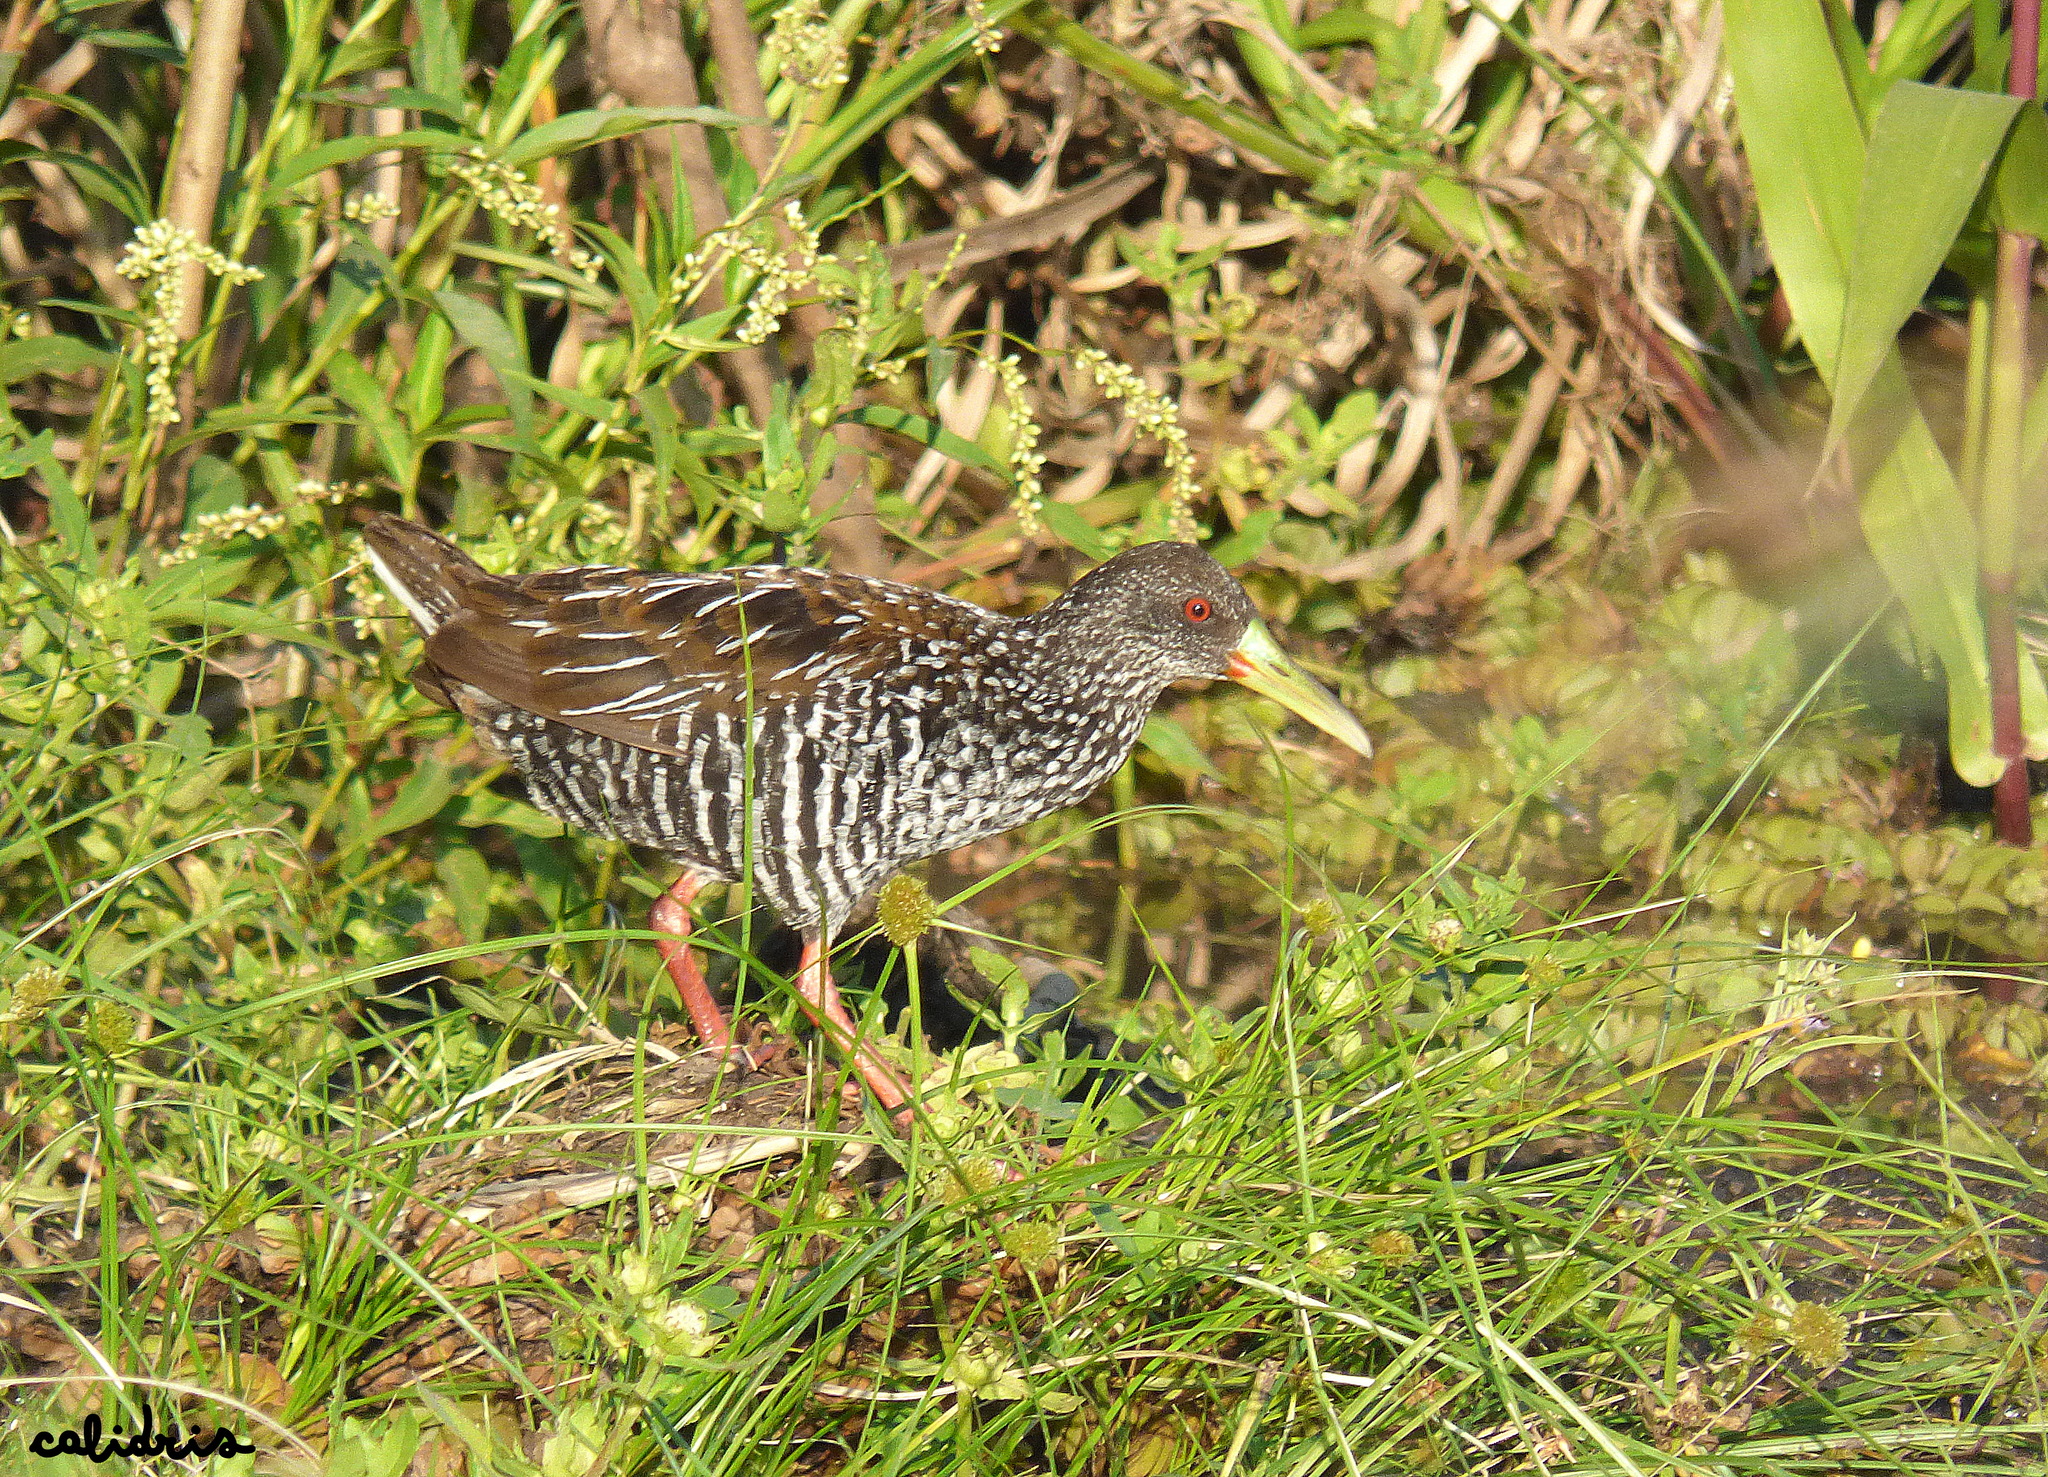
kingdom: Animalia
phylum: Chordata
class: Aves
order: Gruiformes
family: Rallidae
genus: Pardirallus
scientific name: Pardirallus maculatus
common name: Spotted rail
